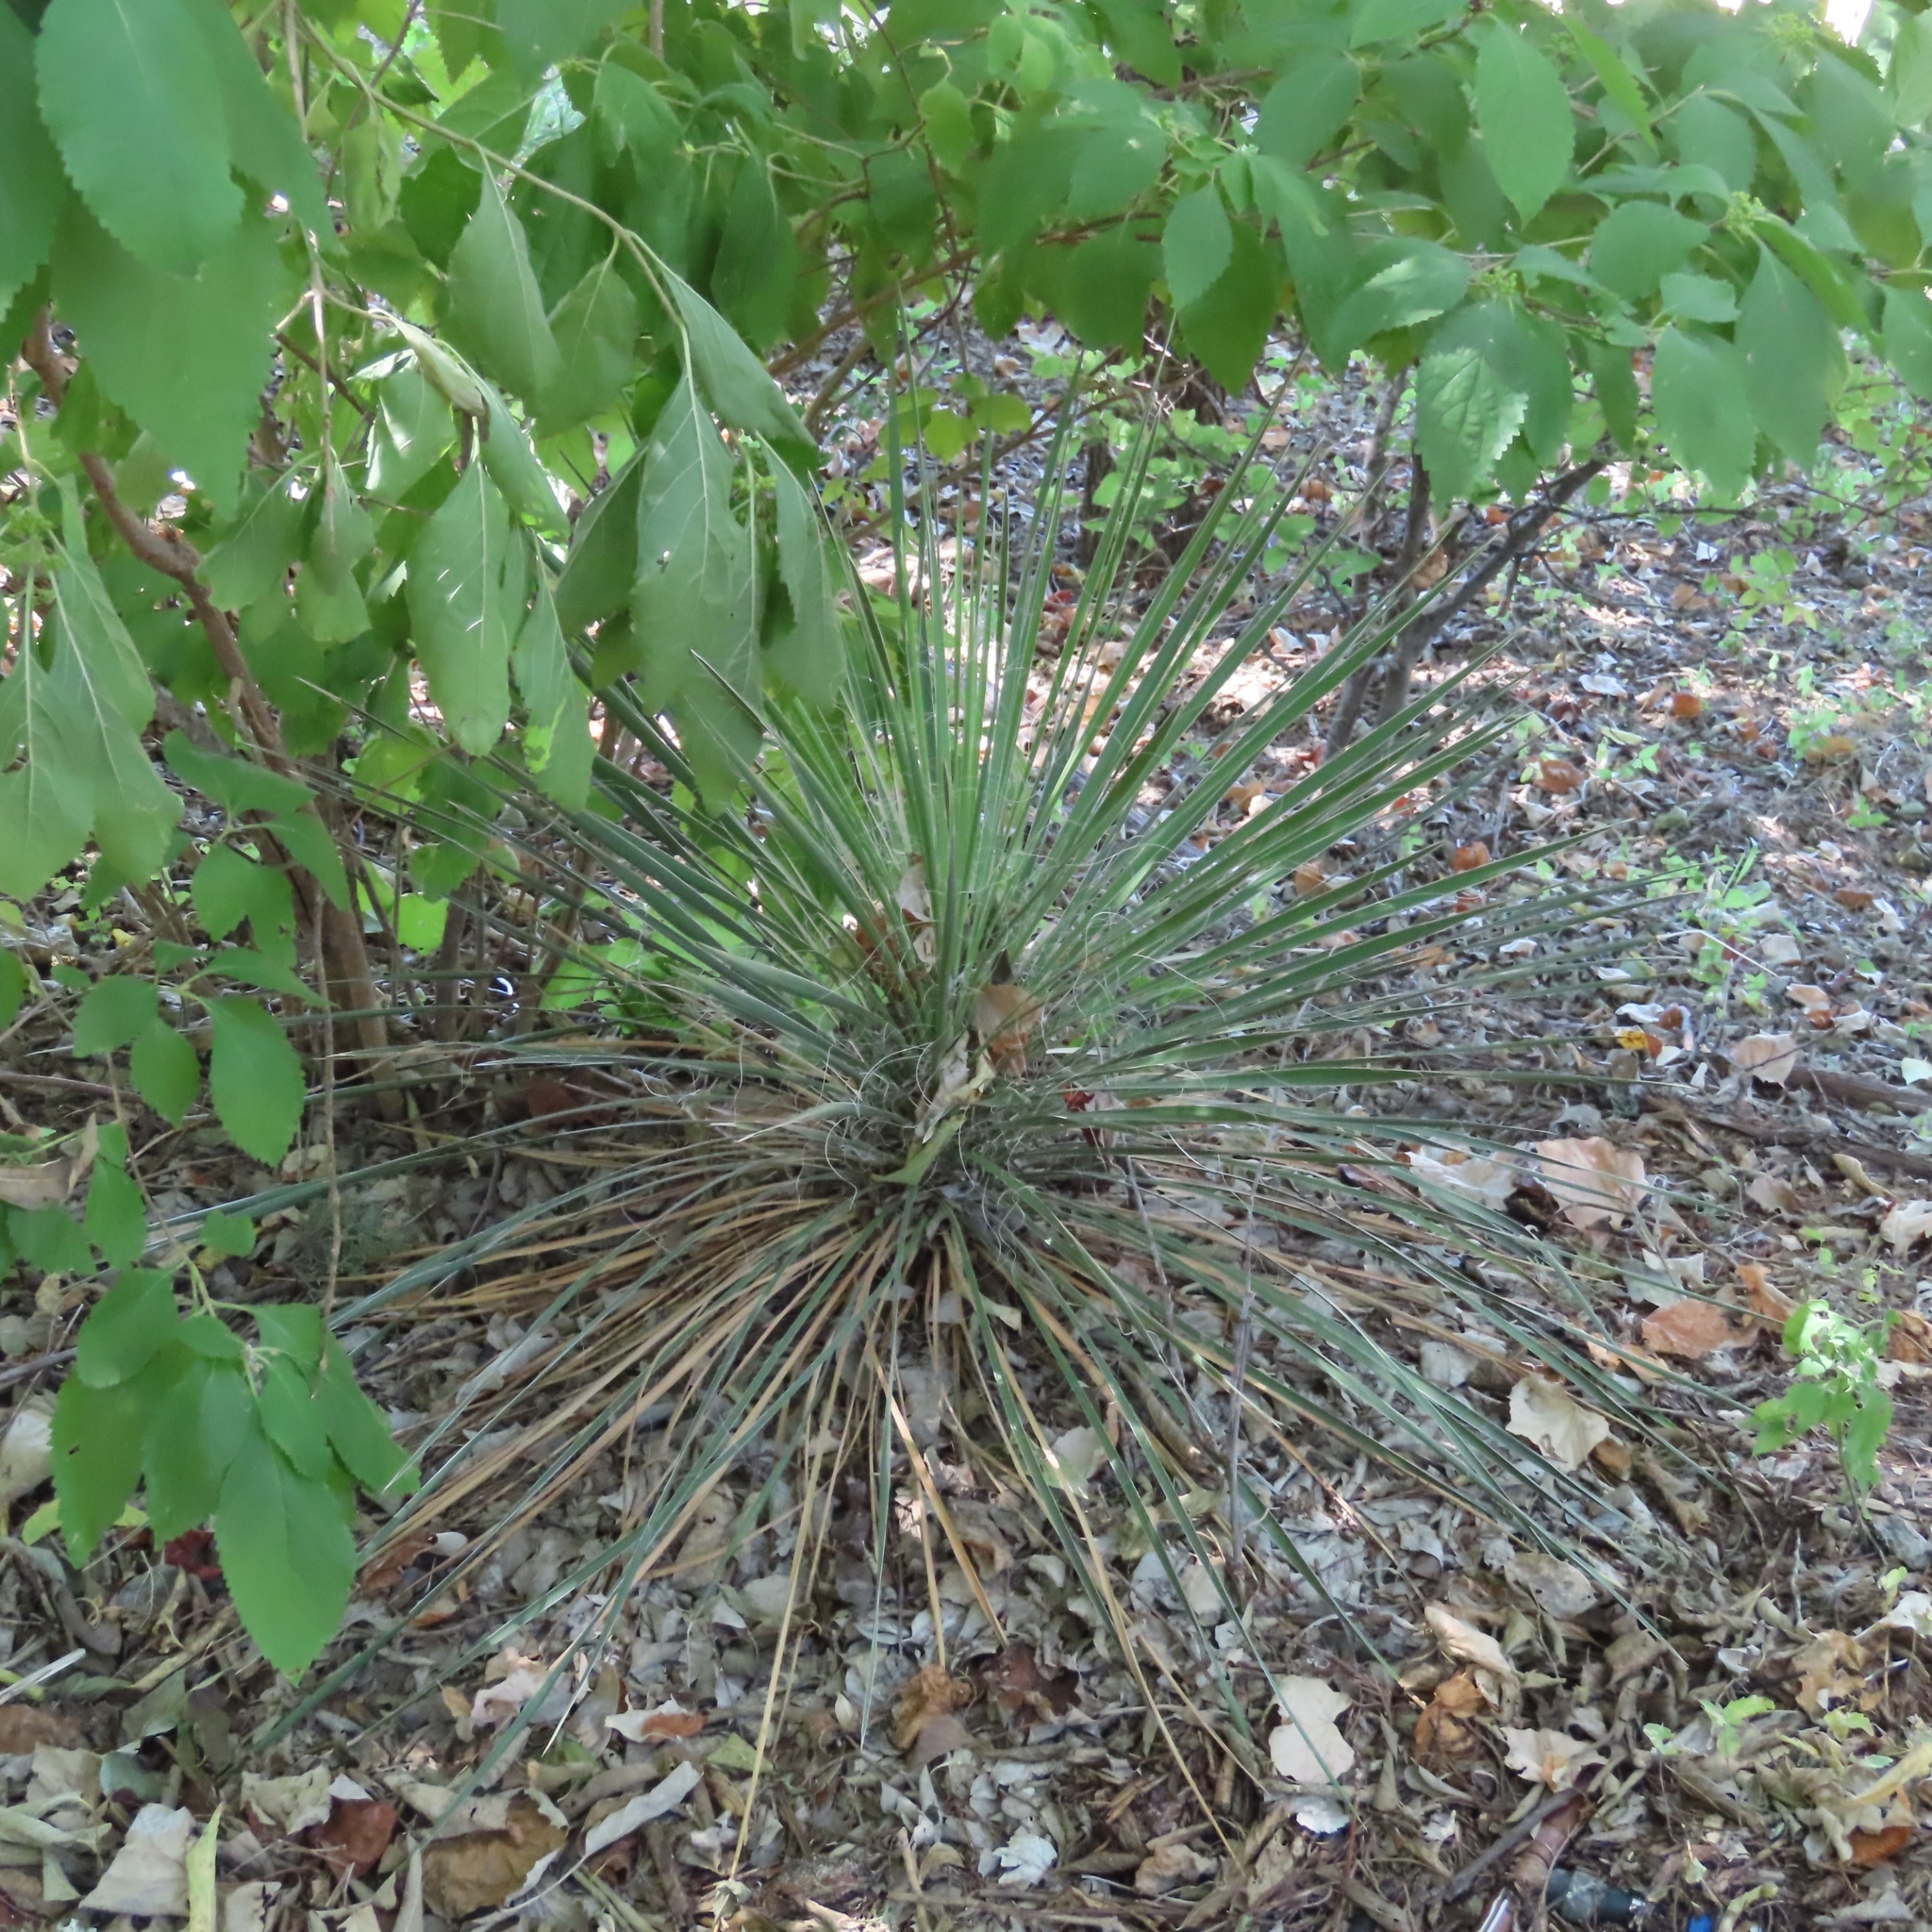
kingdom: Plantae
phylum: Tracheophyta
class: Liliopsida
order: Asparagales
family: Asparagaceae
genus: Yucca
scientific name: Yucca constricta
